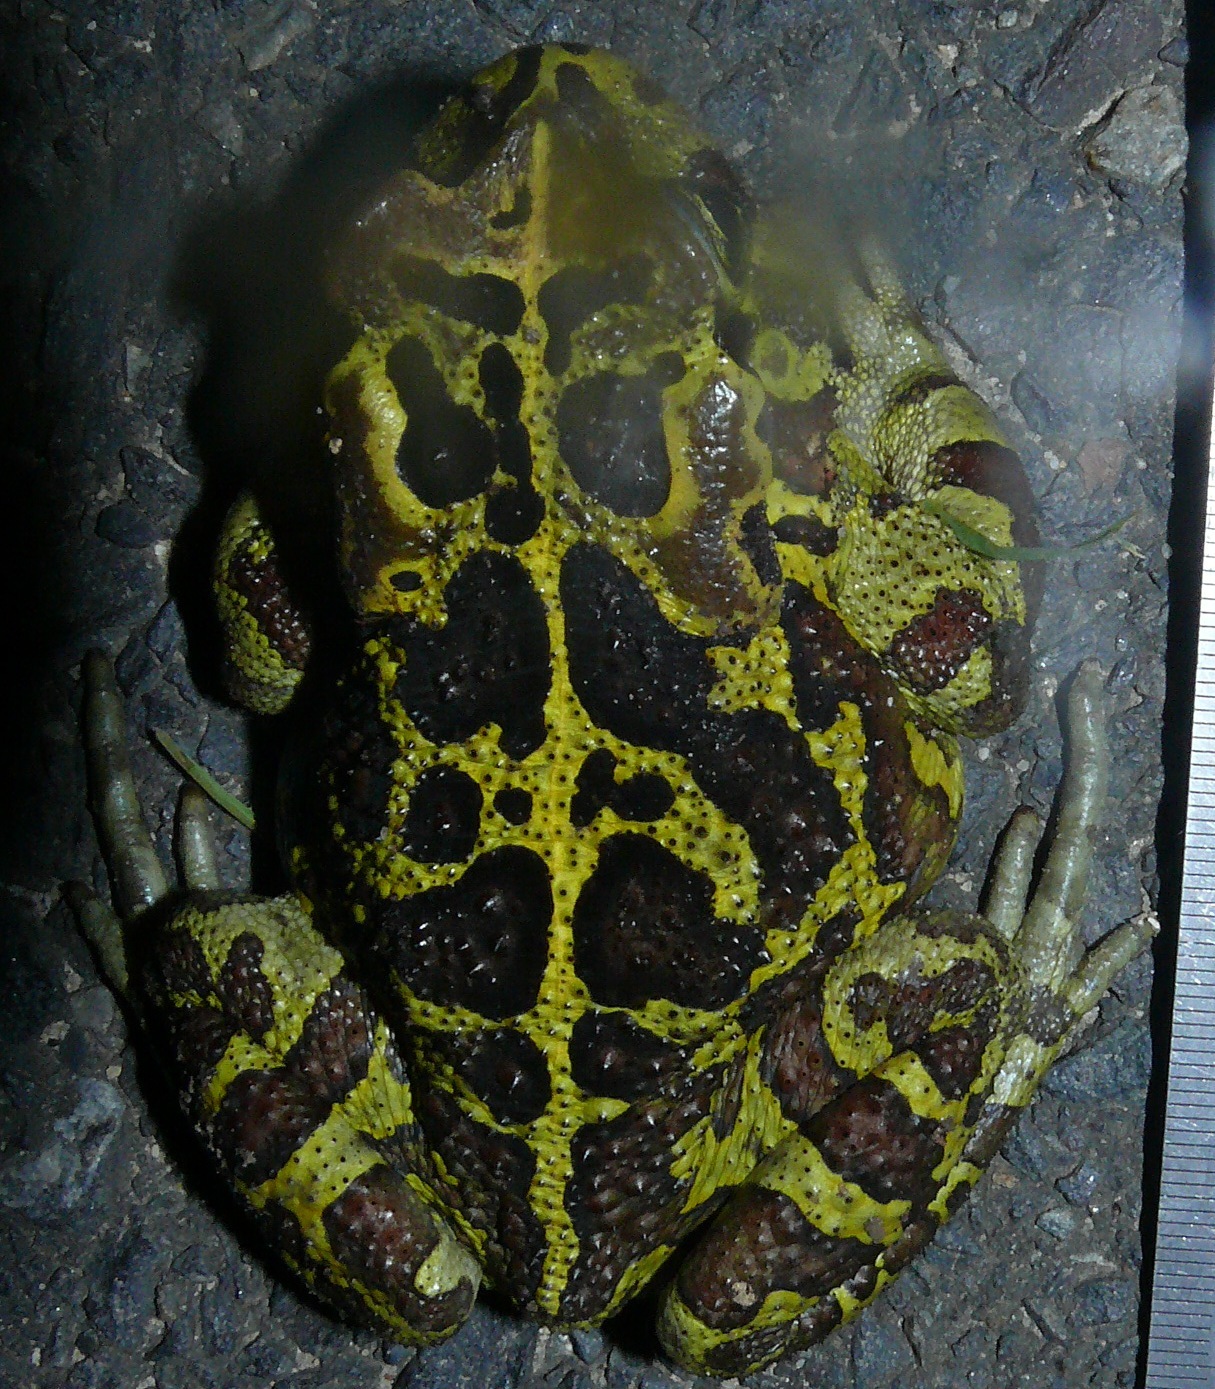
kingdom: Animalia
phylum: Chordata
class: Amphibia
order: Anura
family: Bufonidae
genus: Sclerophrys
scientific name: Sclerophrys pantherina
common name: Panther toad
